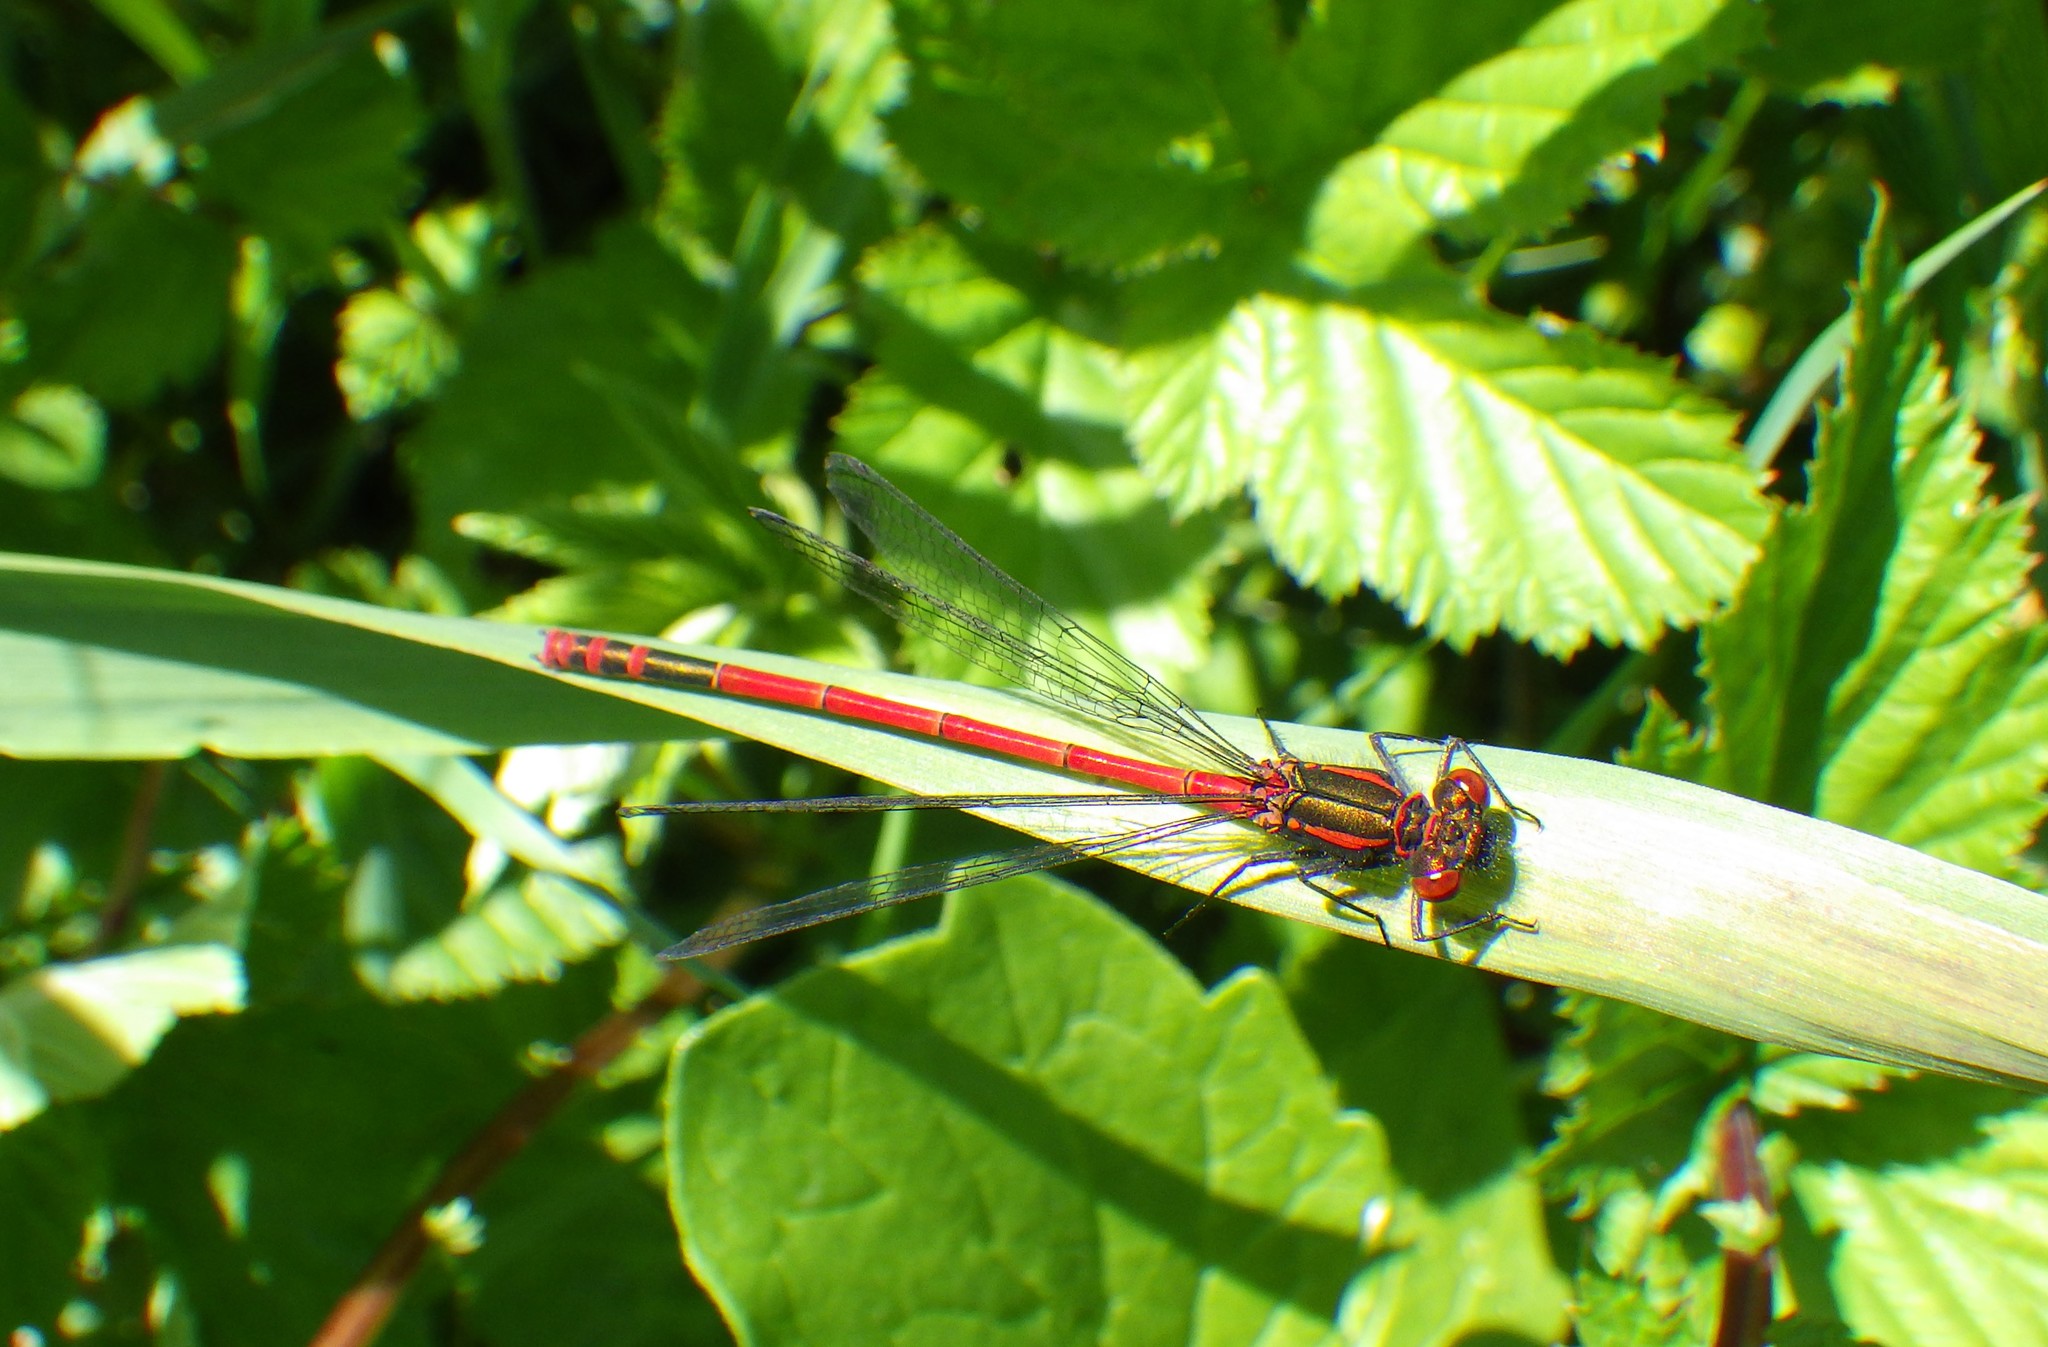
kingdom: Animalia
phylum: Arthropoda
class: Insecta
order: Odonata
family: Coenagrionidae
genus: Pyrrhosoma
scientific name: Pyrrhosoma nymphula
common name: Large red damsel
